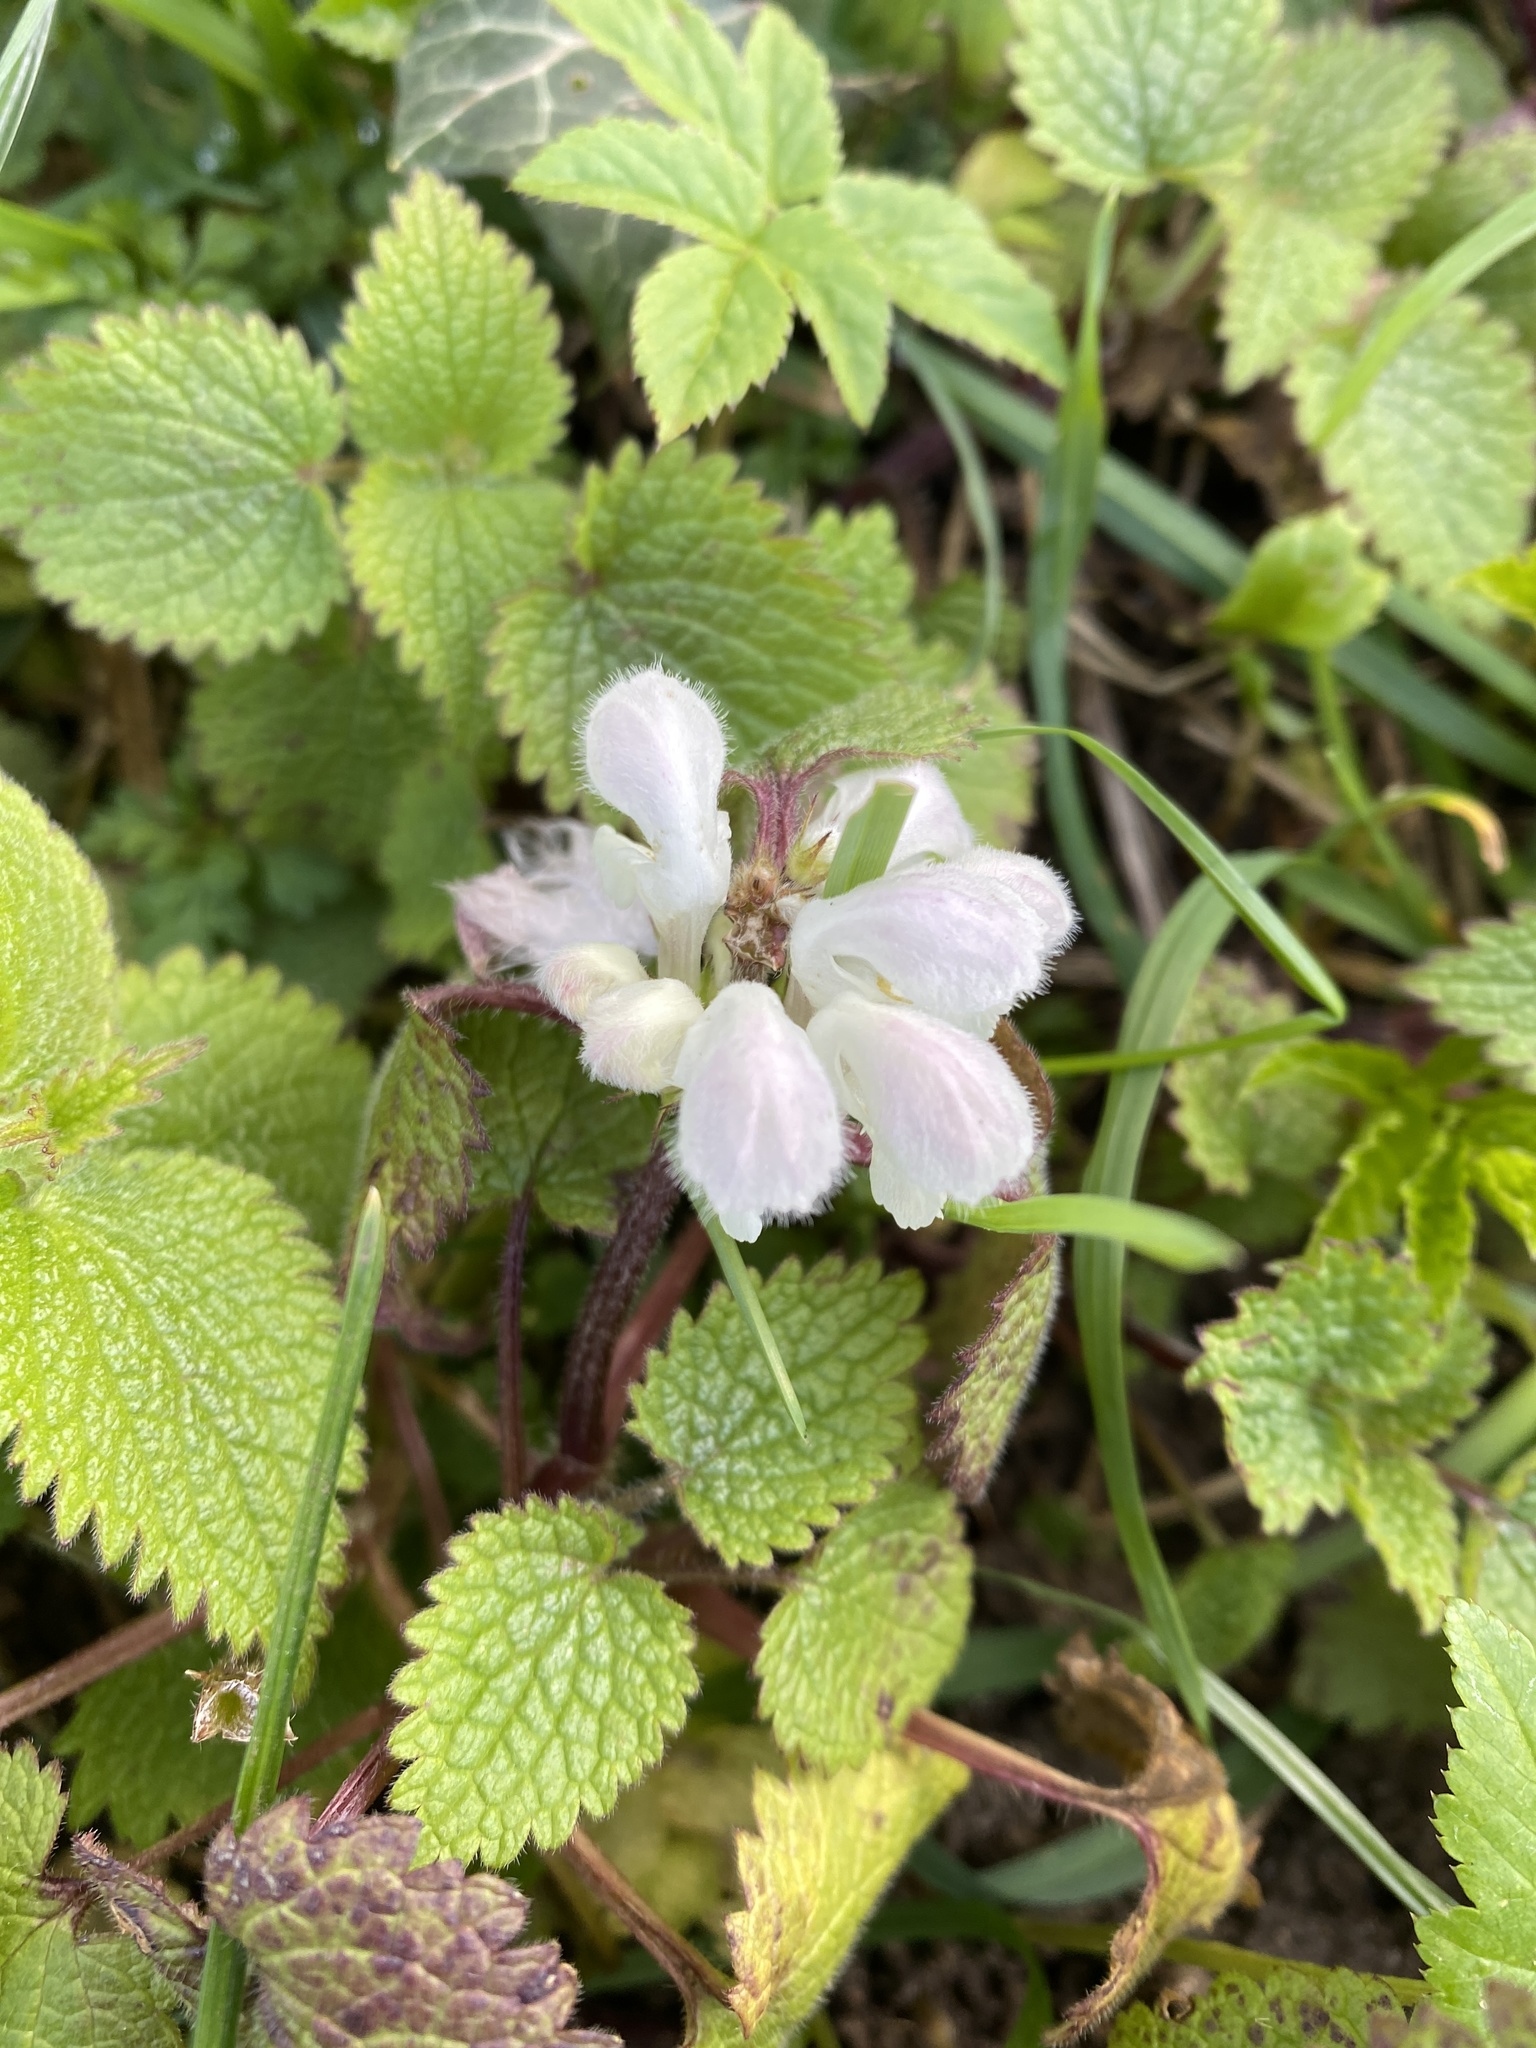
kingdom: Plantae
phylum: Tracheophyta
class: Magnoliopsida
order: Lamiales
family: Lamiaceae
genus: Lamium
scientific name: Lamium album
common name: White dead-nettle
